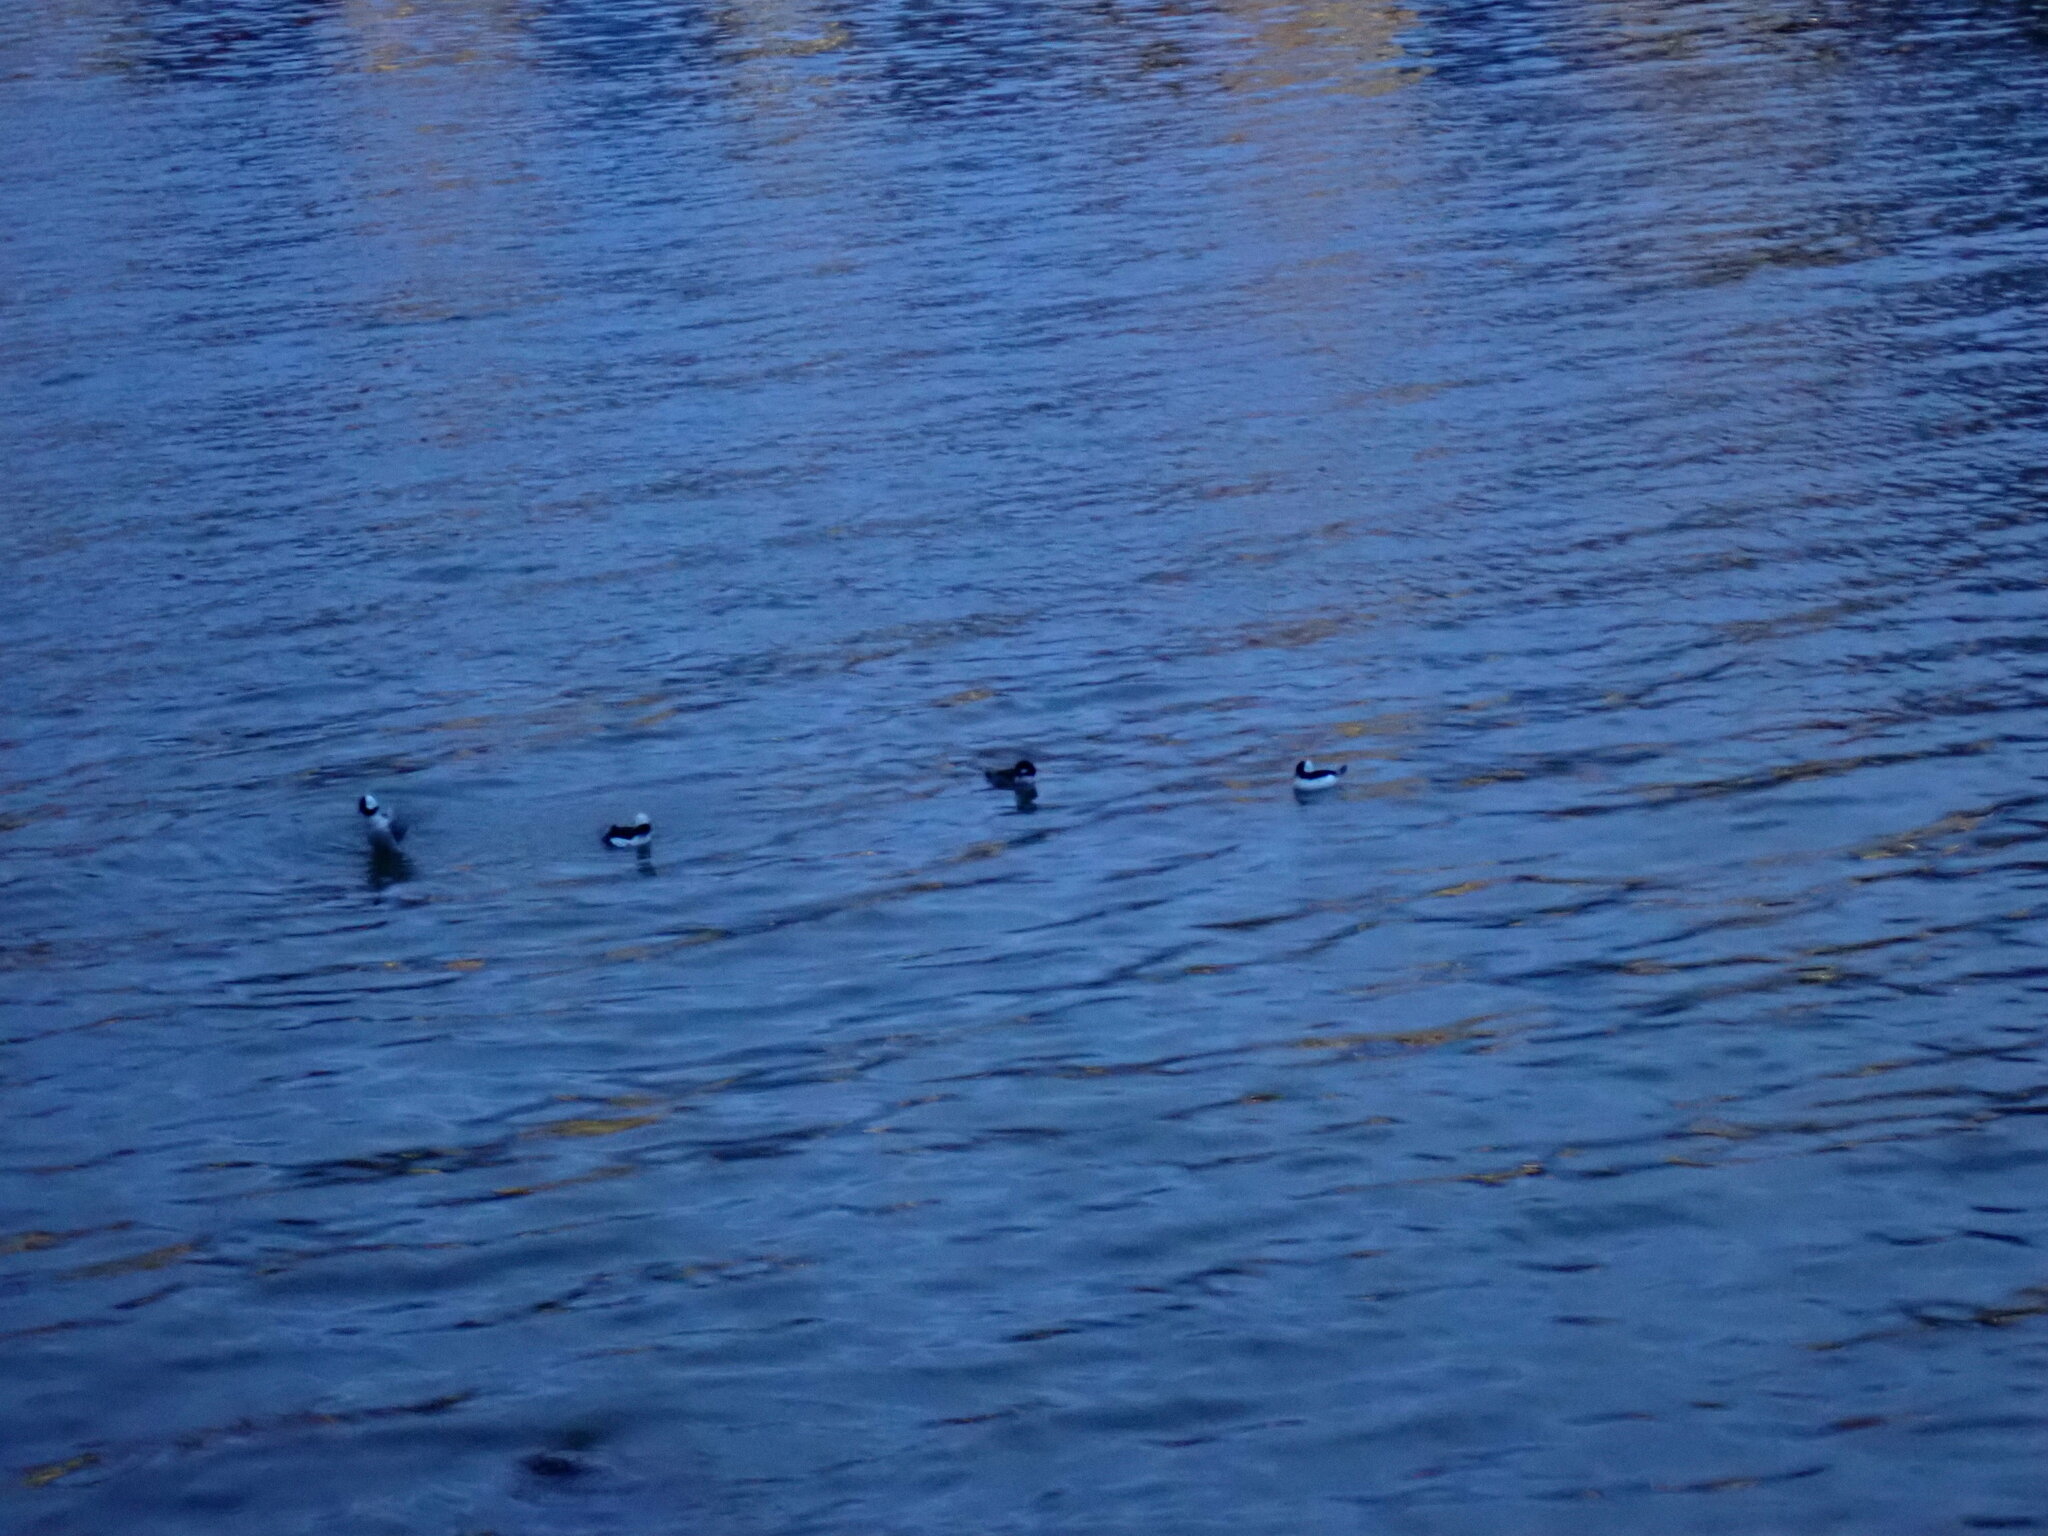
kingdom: Animalia
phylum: Chordata
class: Aves
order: Anseriformes
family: Anatidae
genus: Bucephala
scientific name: Bucephala albeola
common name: Bufflehead
